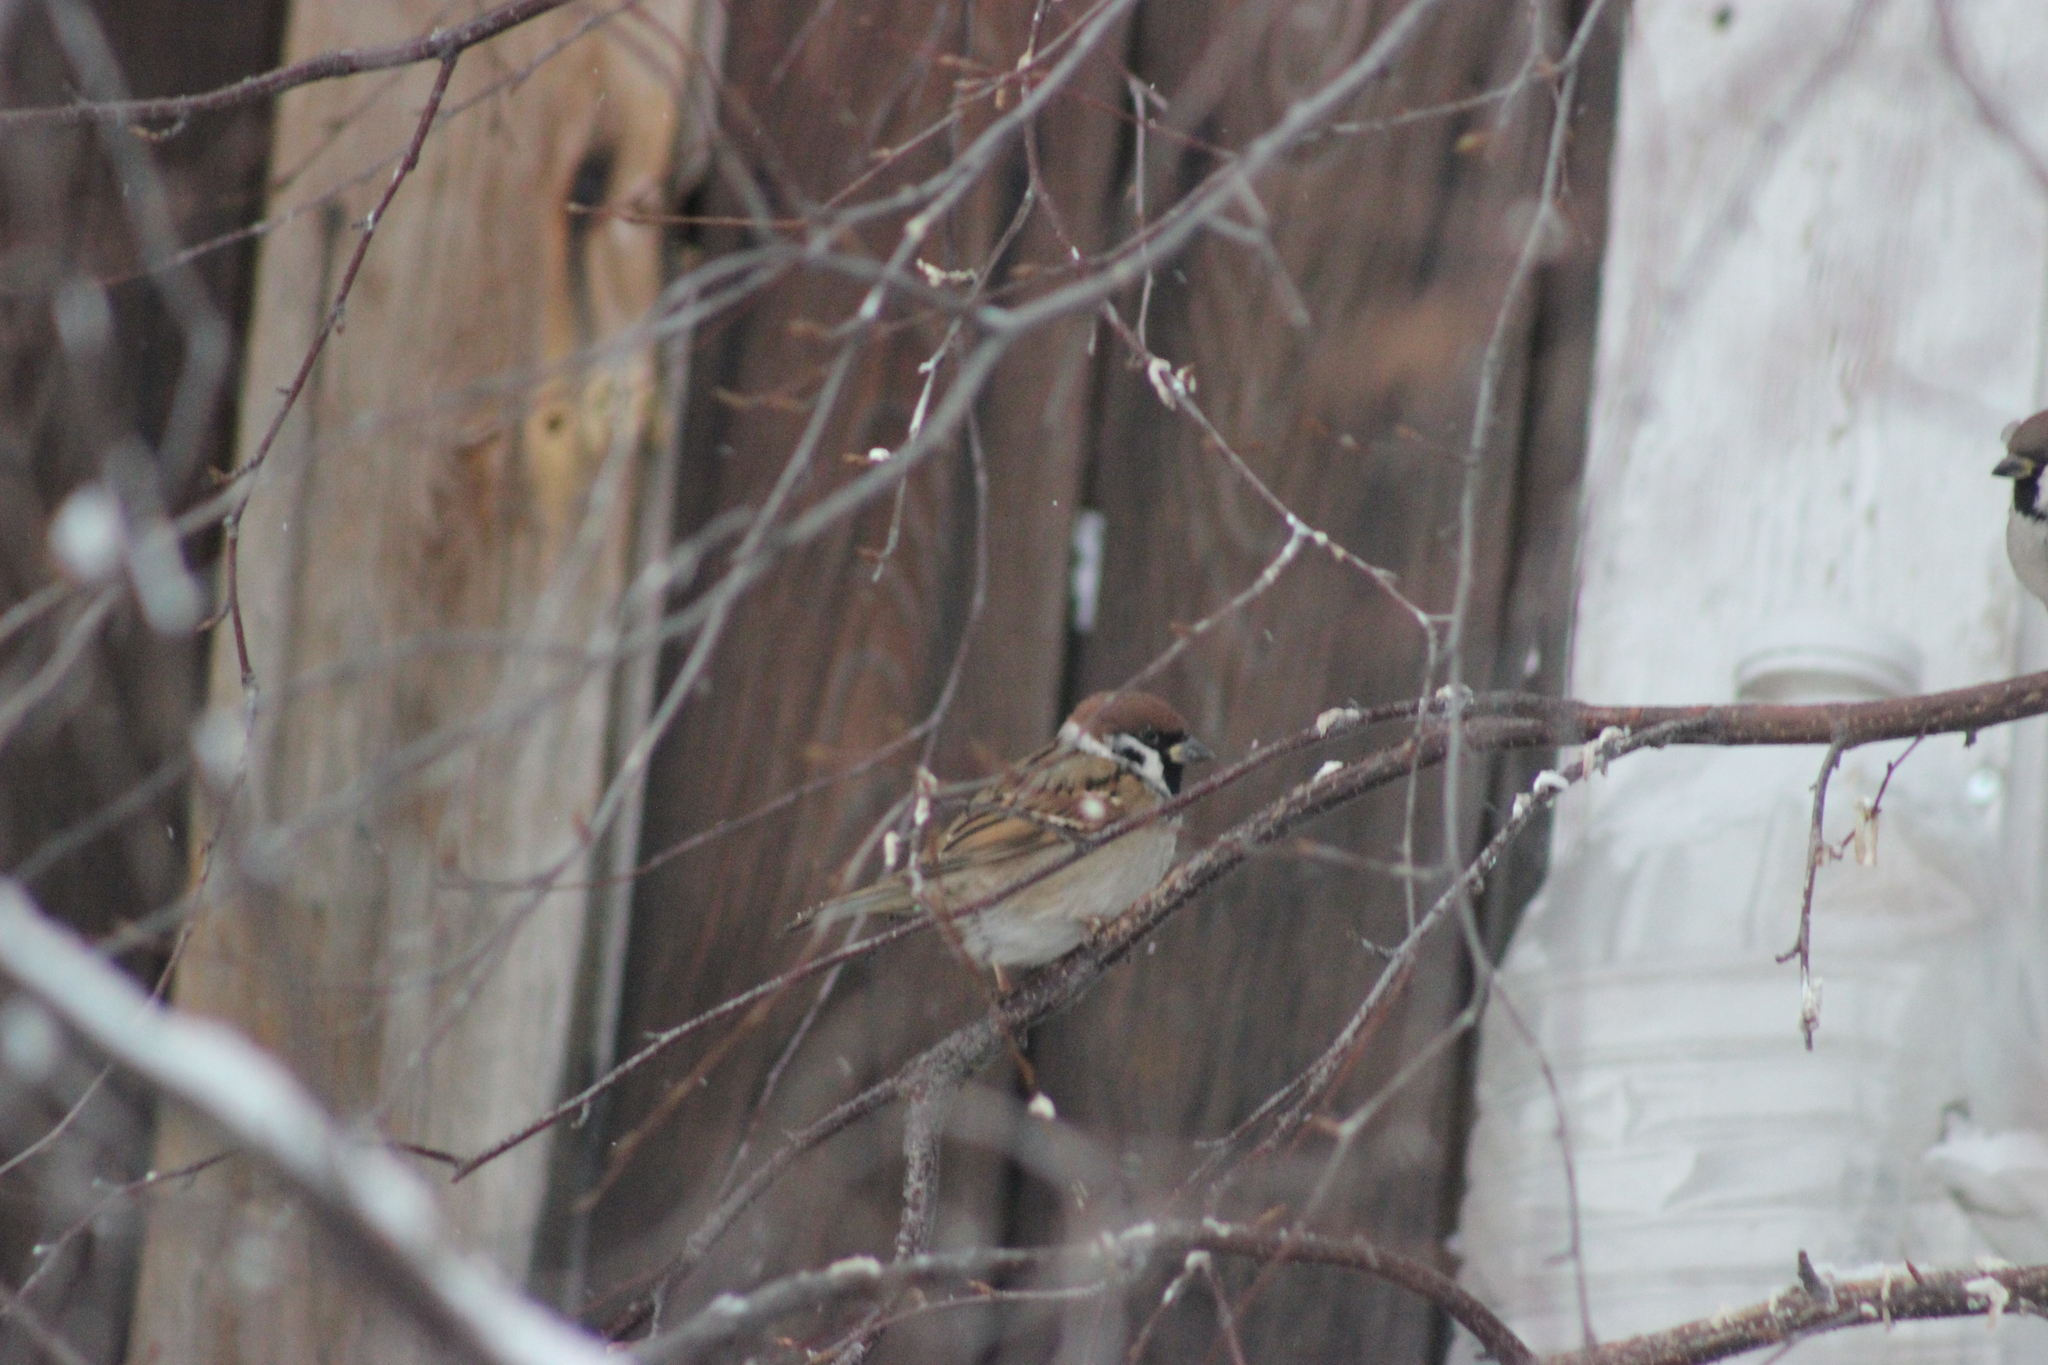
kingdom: Animalia
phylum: Chordata
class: Aves
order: Passeriformes
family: Passeridae
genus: Passer
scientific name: Passer montanus
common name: Eurasian tree sparrow
